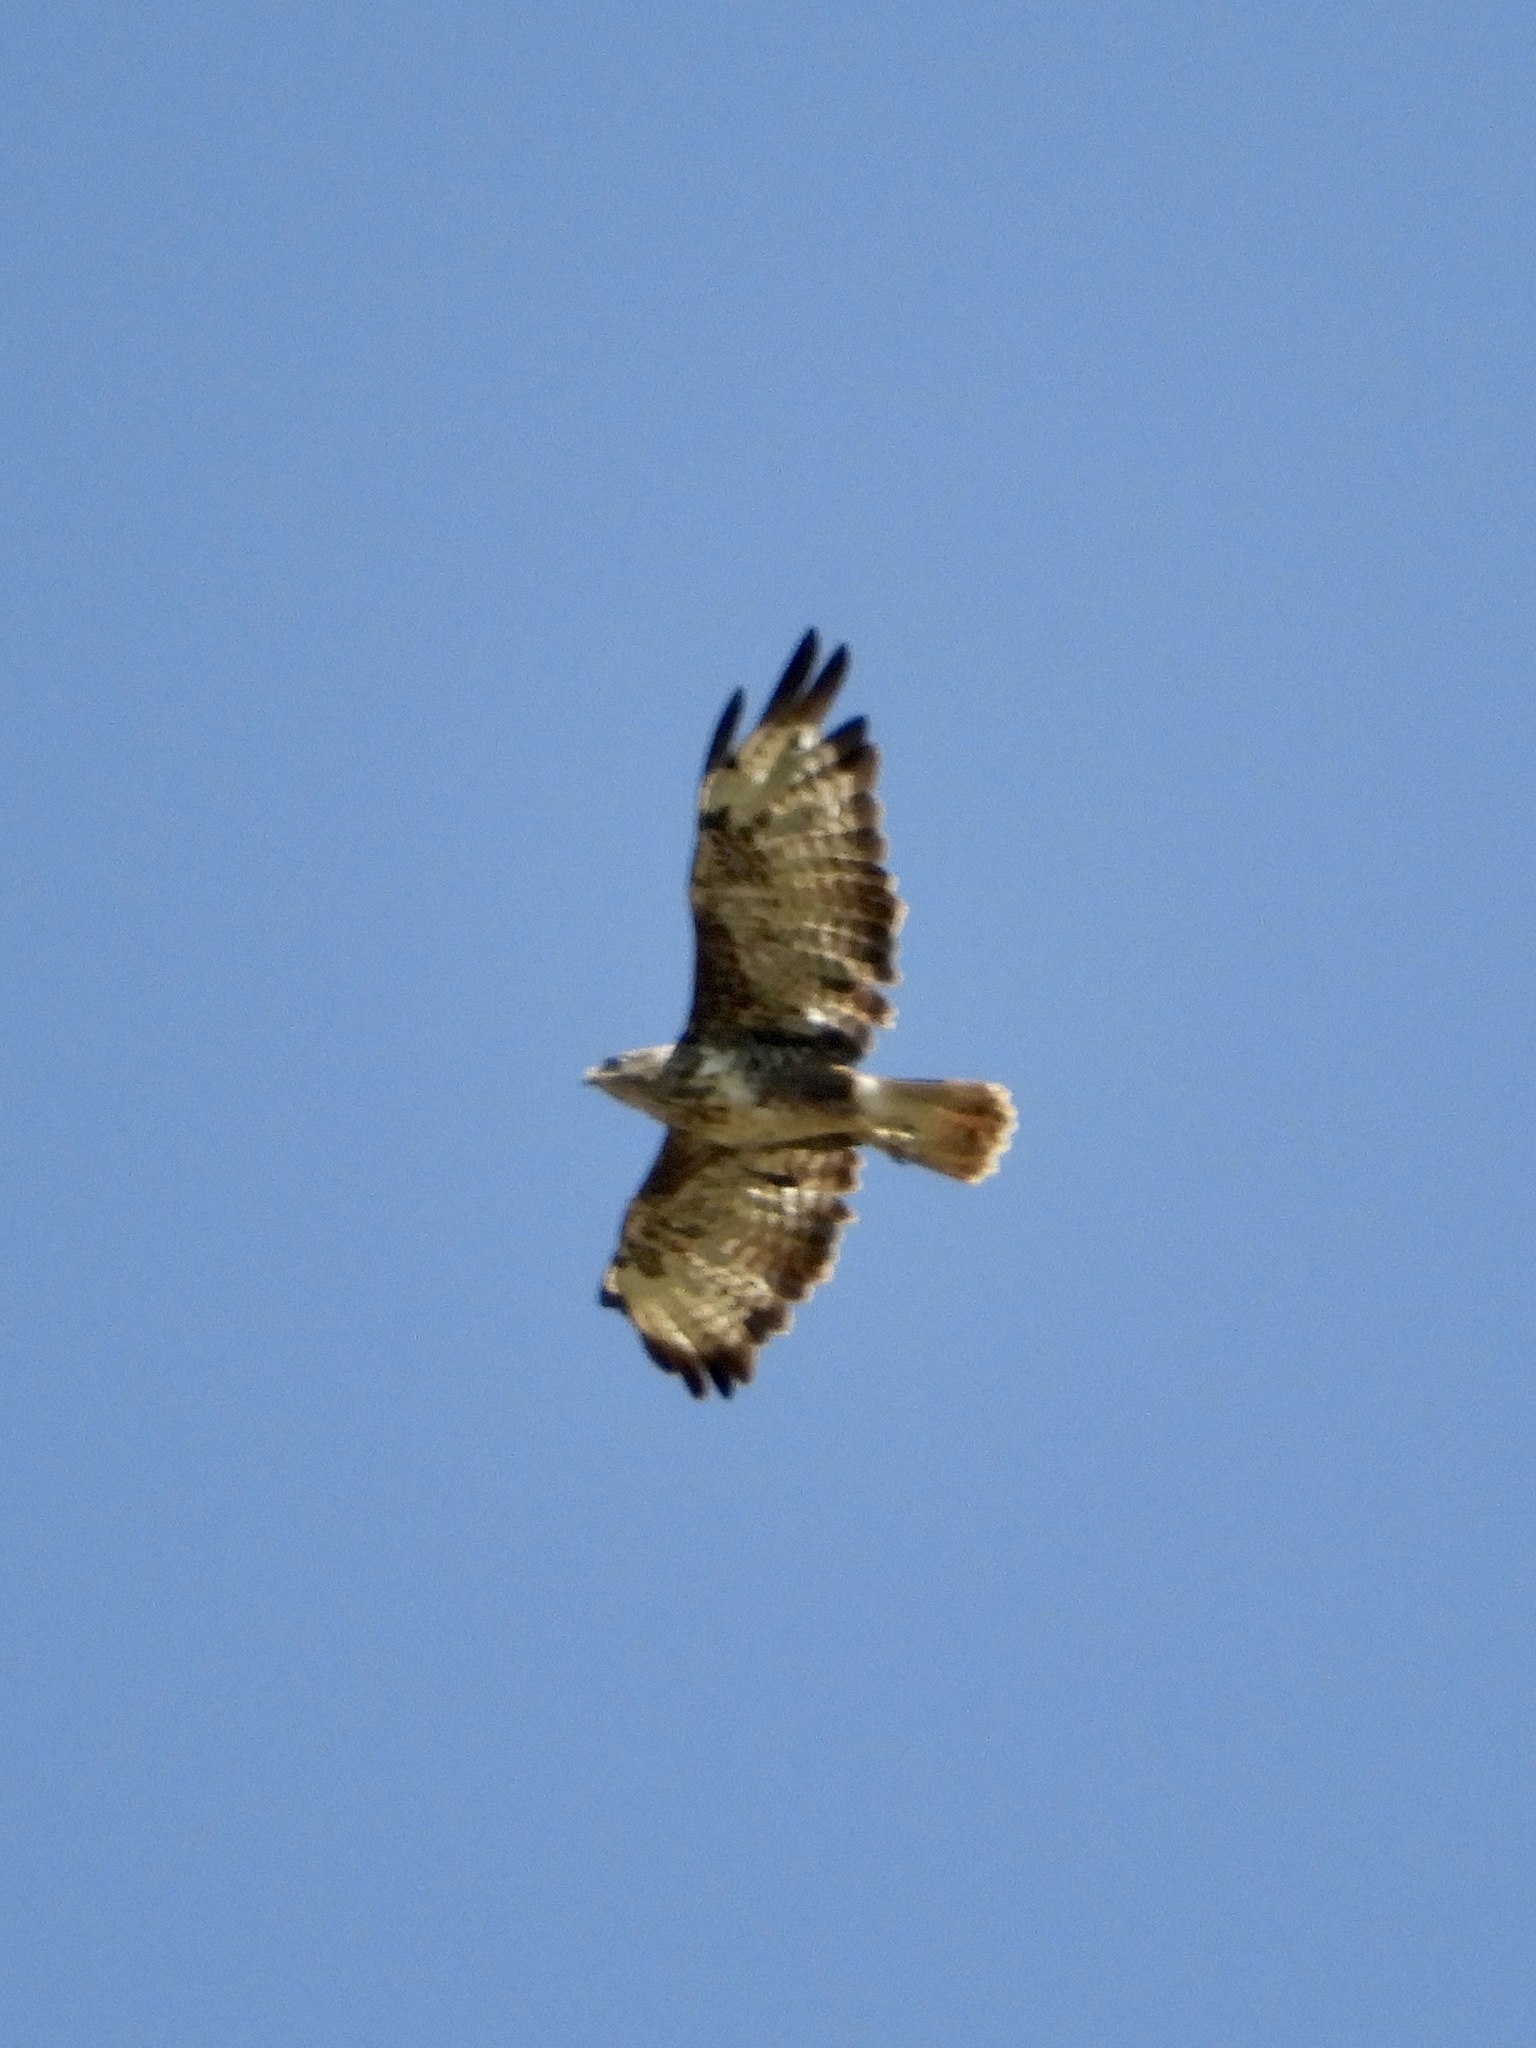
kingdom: Animalia
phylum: Chordata
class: Aves
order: Accipitriformes
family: Accipitridae
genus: Buteo
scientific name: Buteo buteo
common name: Common buzzard
